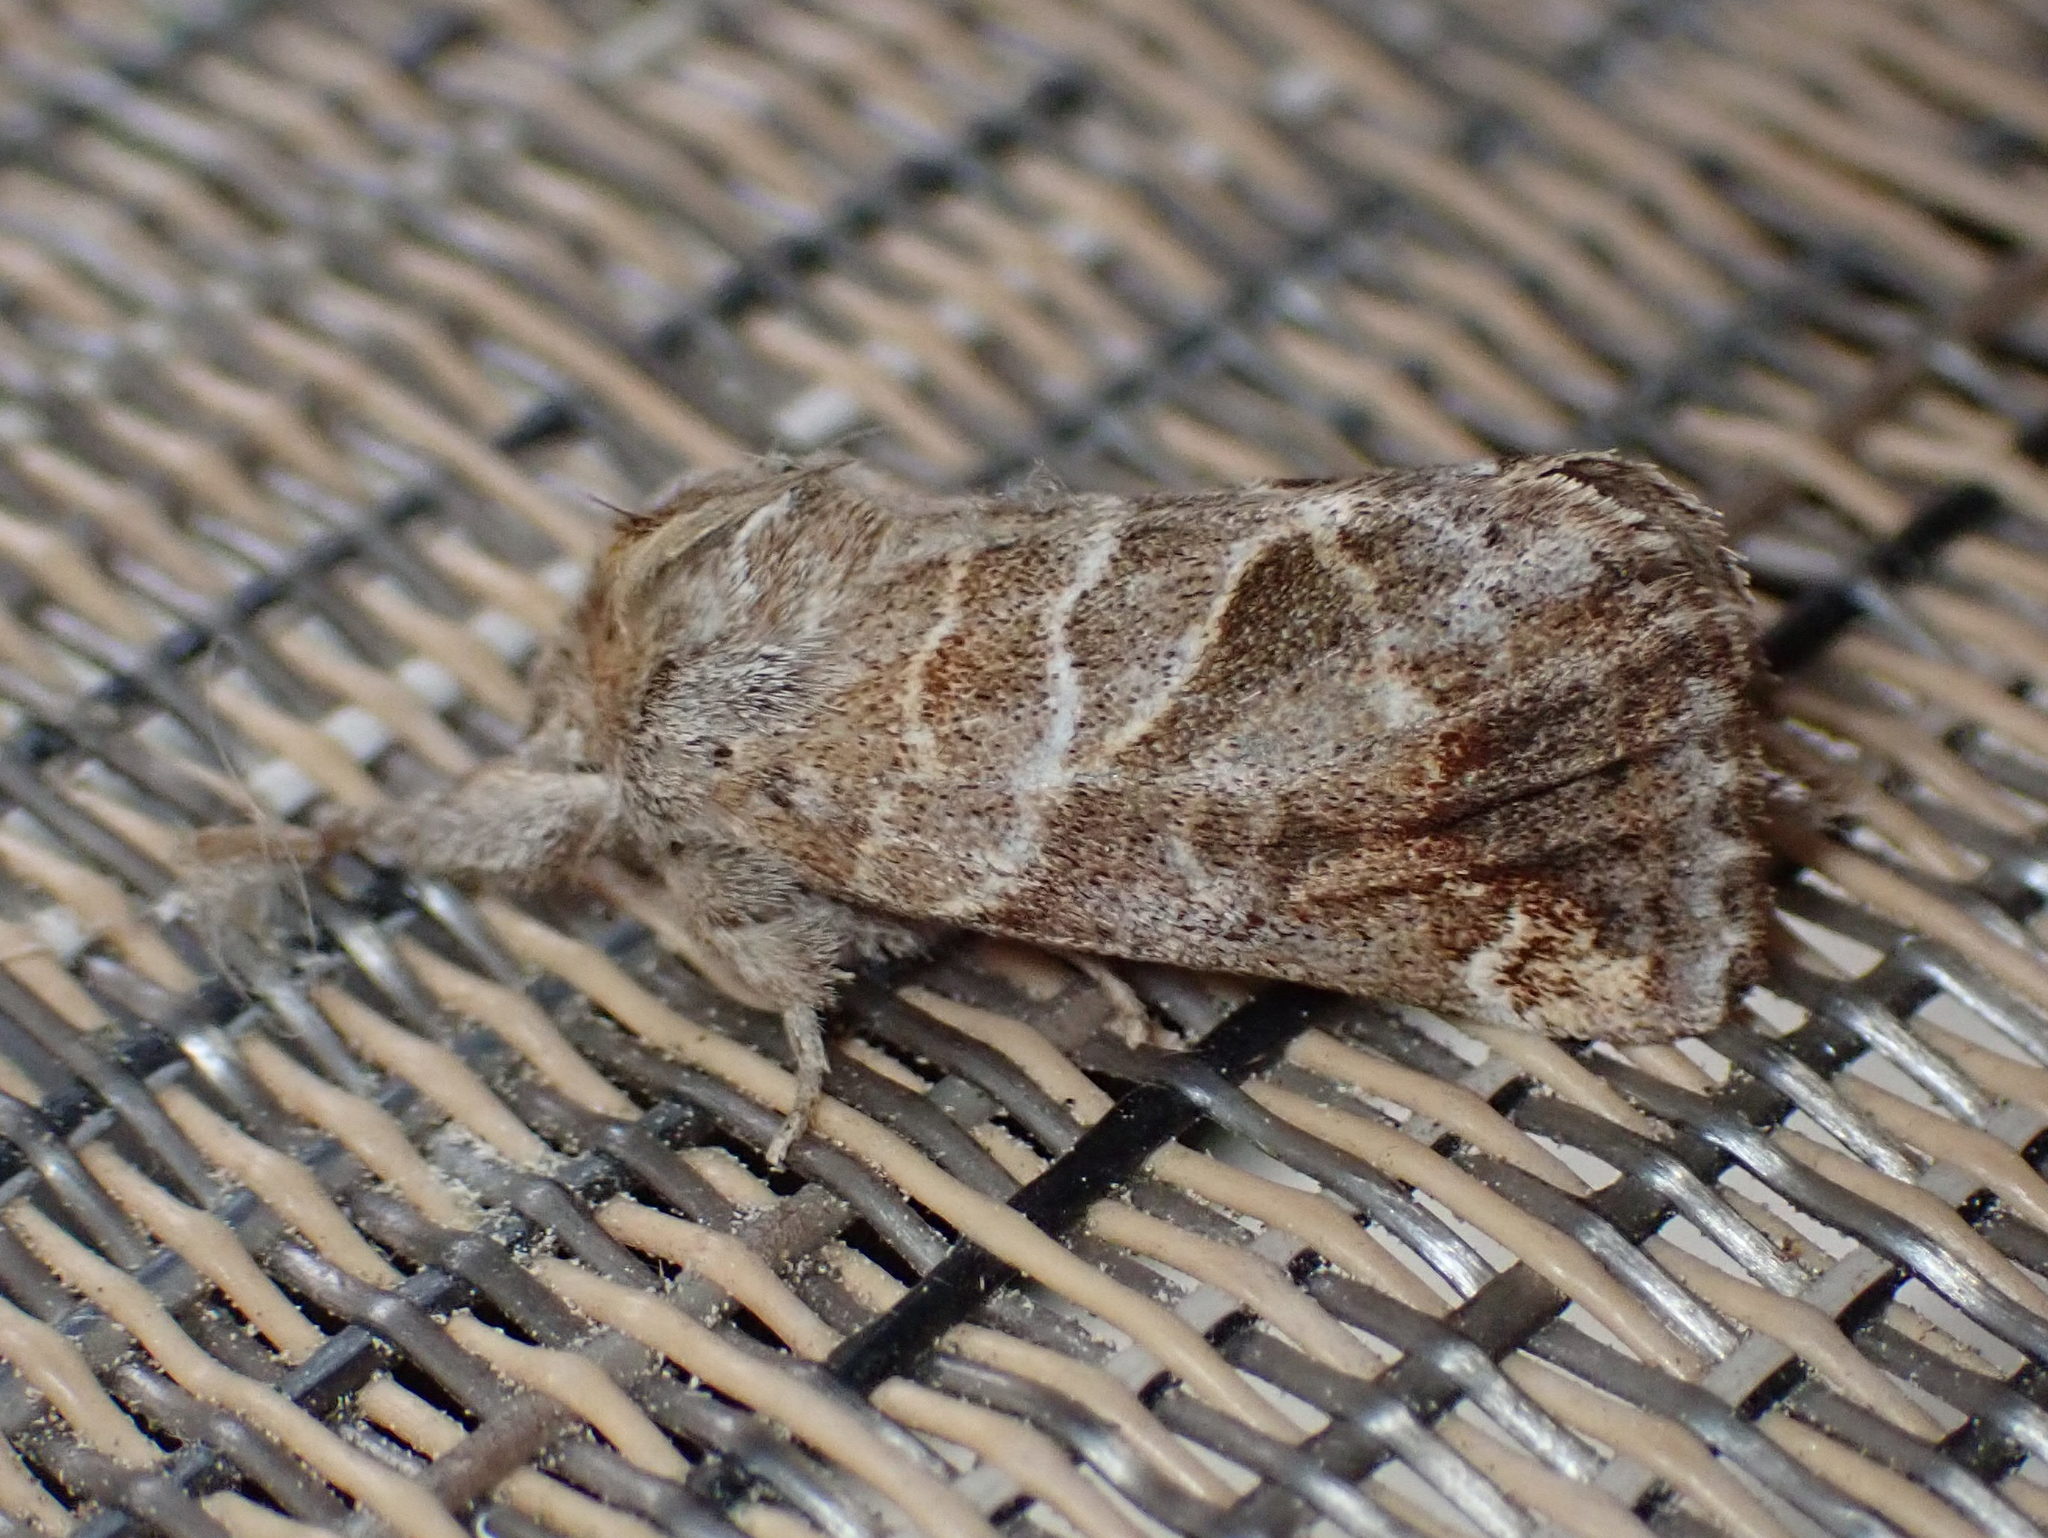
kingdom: Animalia
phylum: Arthropoda
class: Insecta
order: Lepidoptera
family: Notodontidae
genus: Clostera
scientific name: Clostera apicalis
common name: Apical prominent
